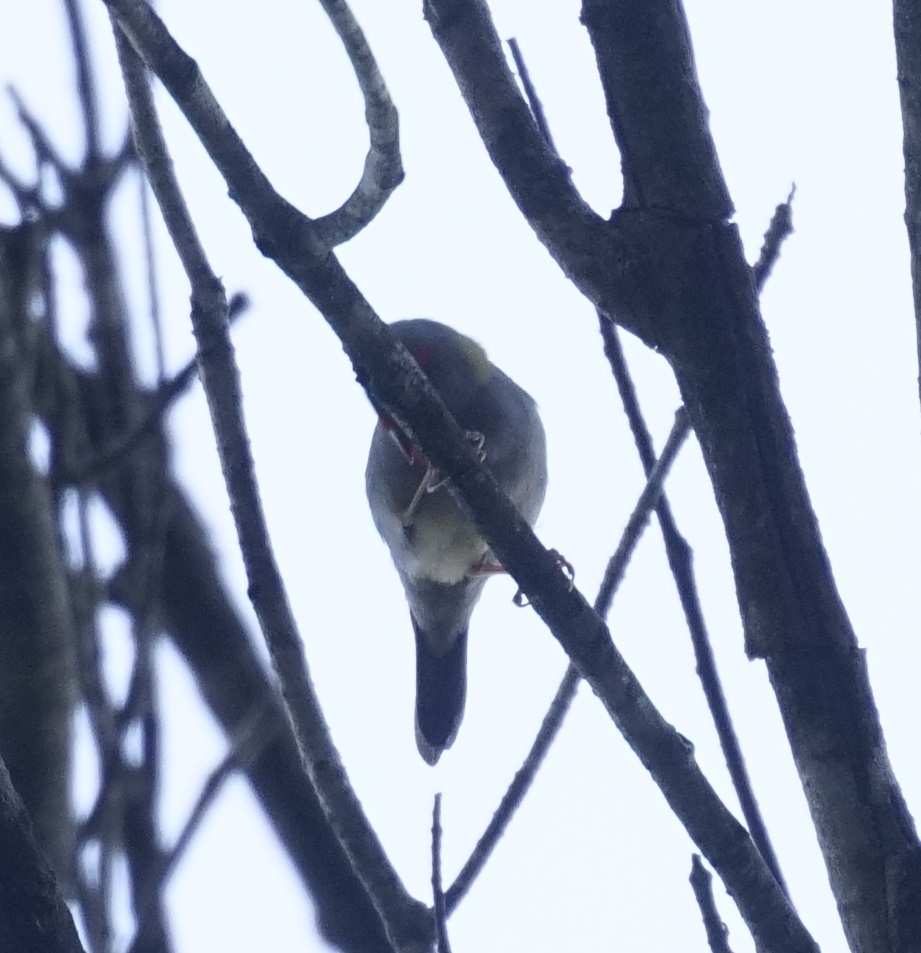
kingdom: Animalia
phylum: Chordata
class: Aves
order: Passeriformes
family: Estrildidae
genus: Neochmia
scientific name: Neochmia temporalis
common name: Red-browed finch
